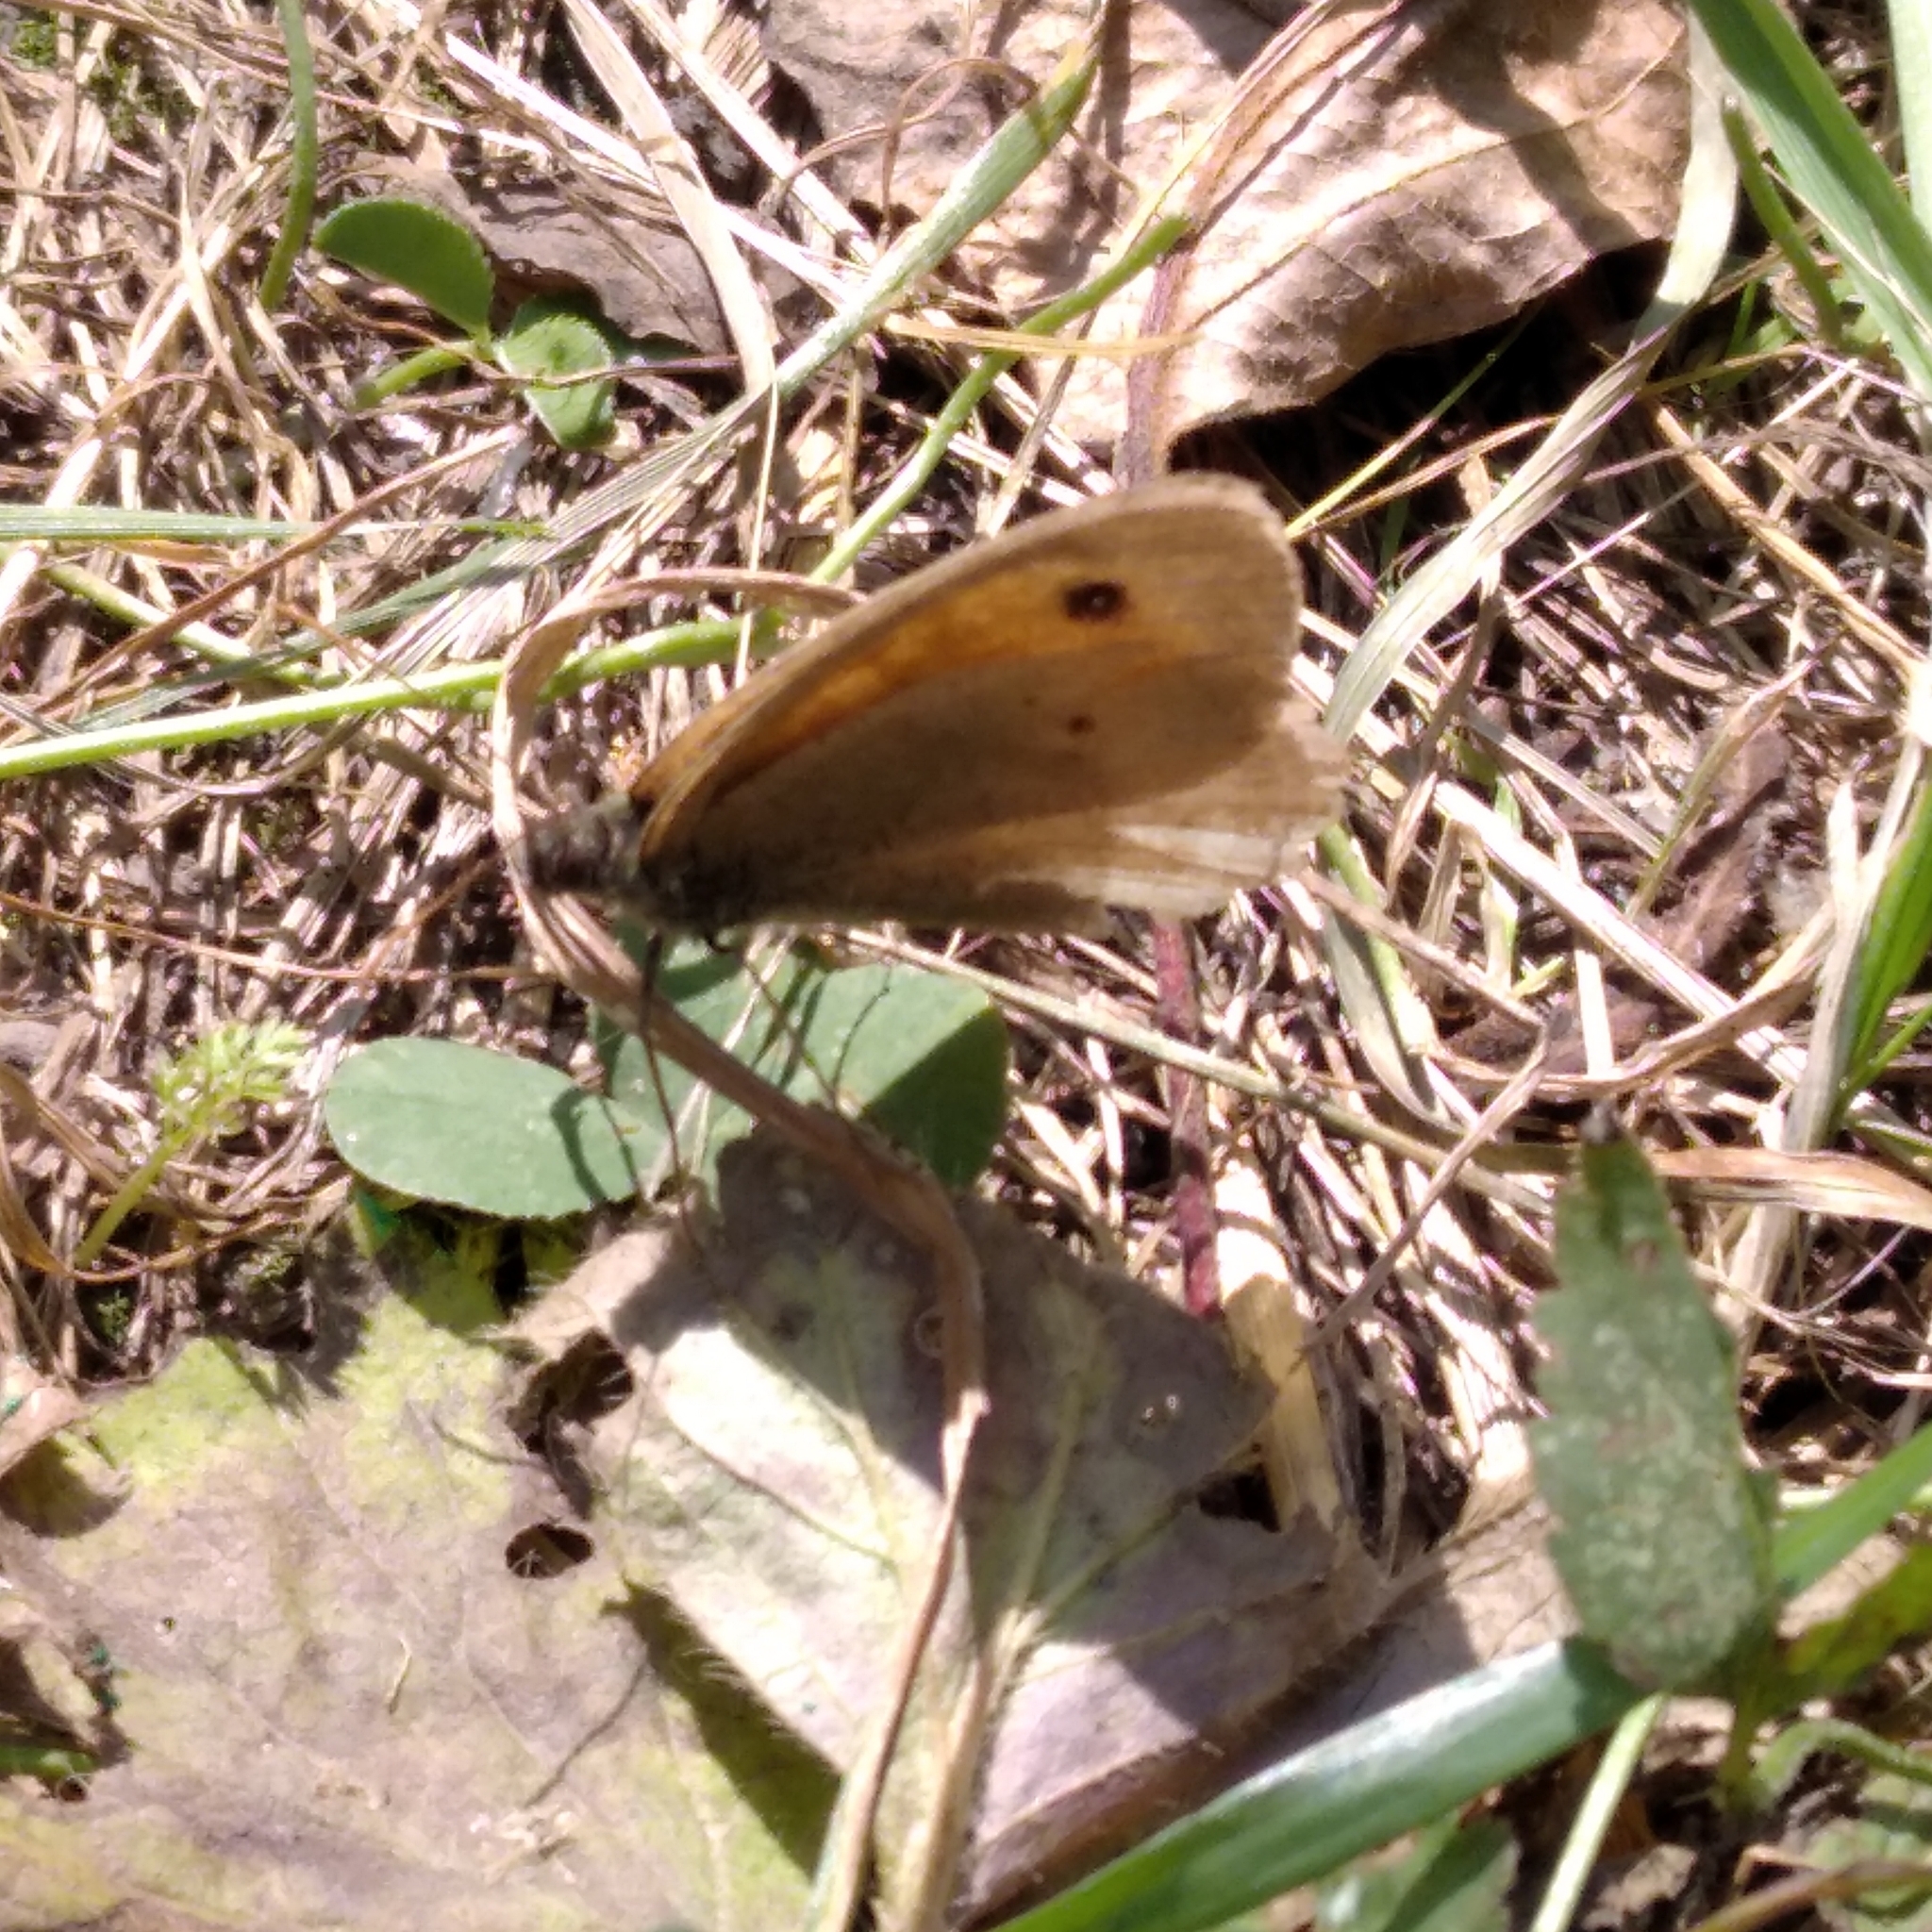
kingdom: Animalia
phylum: Arthropoda
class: Insecta
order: Lepidoptera
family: Nymphalidae
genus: Maniola
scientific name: Maniola jurtina
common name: Meadow brown
